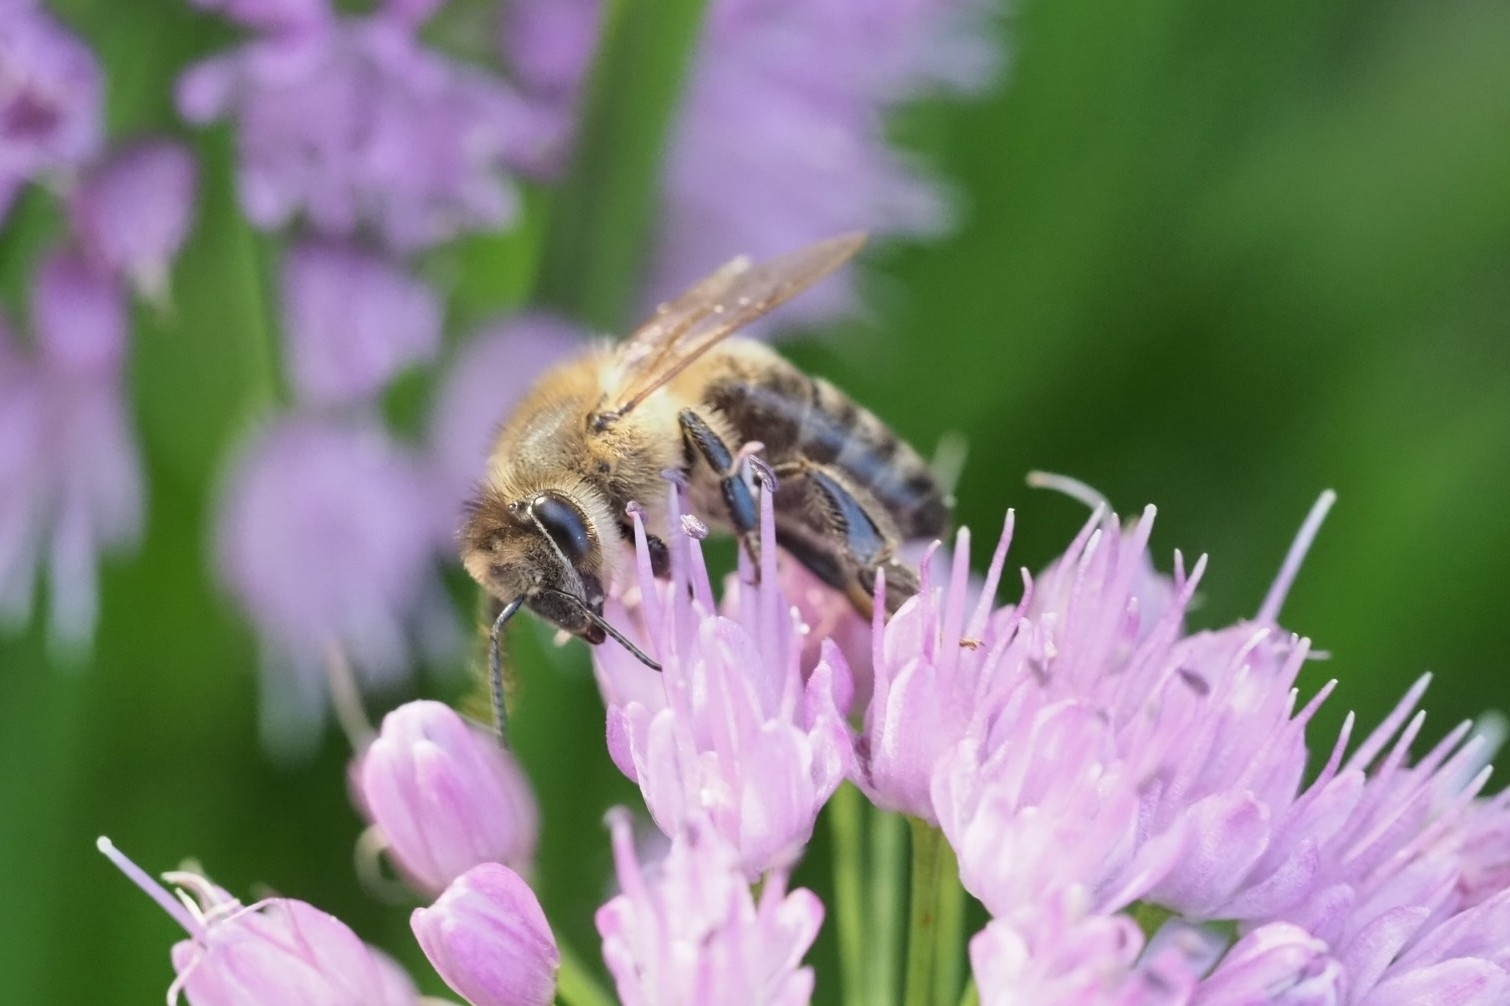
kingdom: Animalia
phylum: Arthropoda
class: Insecta
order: Hymenoptera
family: Apidae
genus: Apis
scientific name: Apis mellifera
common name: Honey bee
